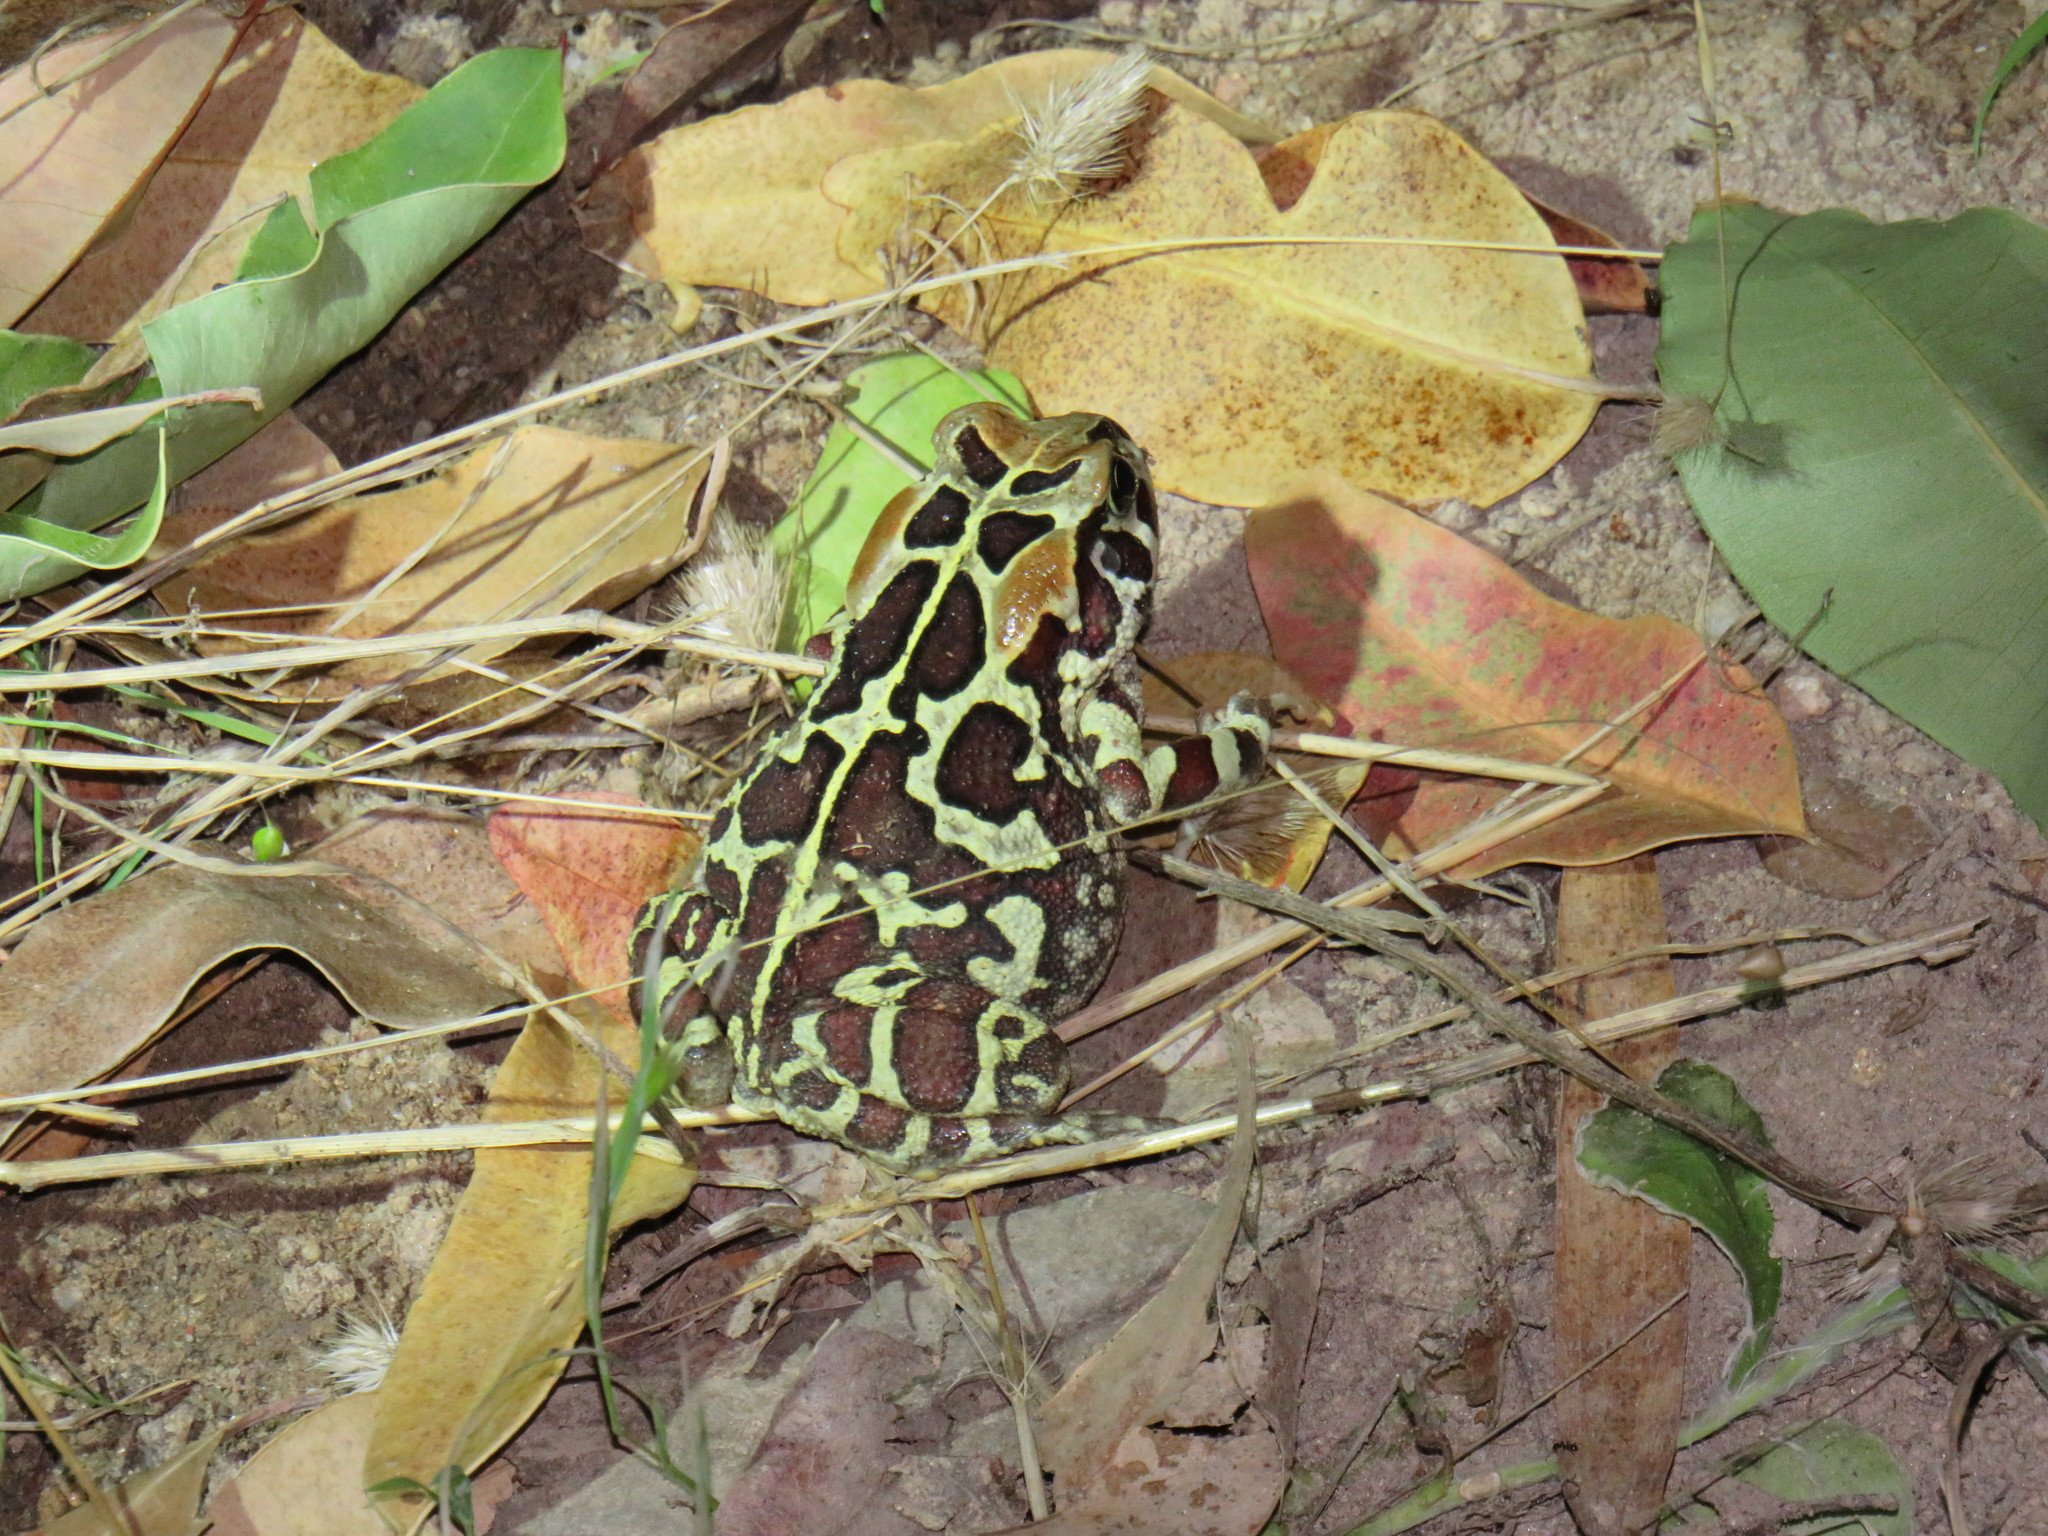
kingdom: Animalia
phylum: Chordata
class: Amphibia
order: Anura
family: Bufonidae
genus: Sclerophrys
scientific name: Sclerophrys pantherina
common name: Panther toad
